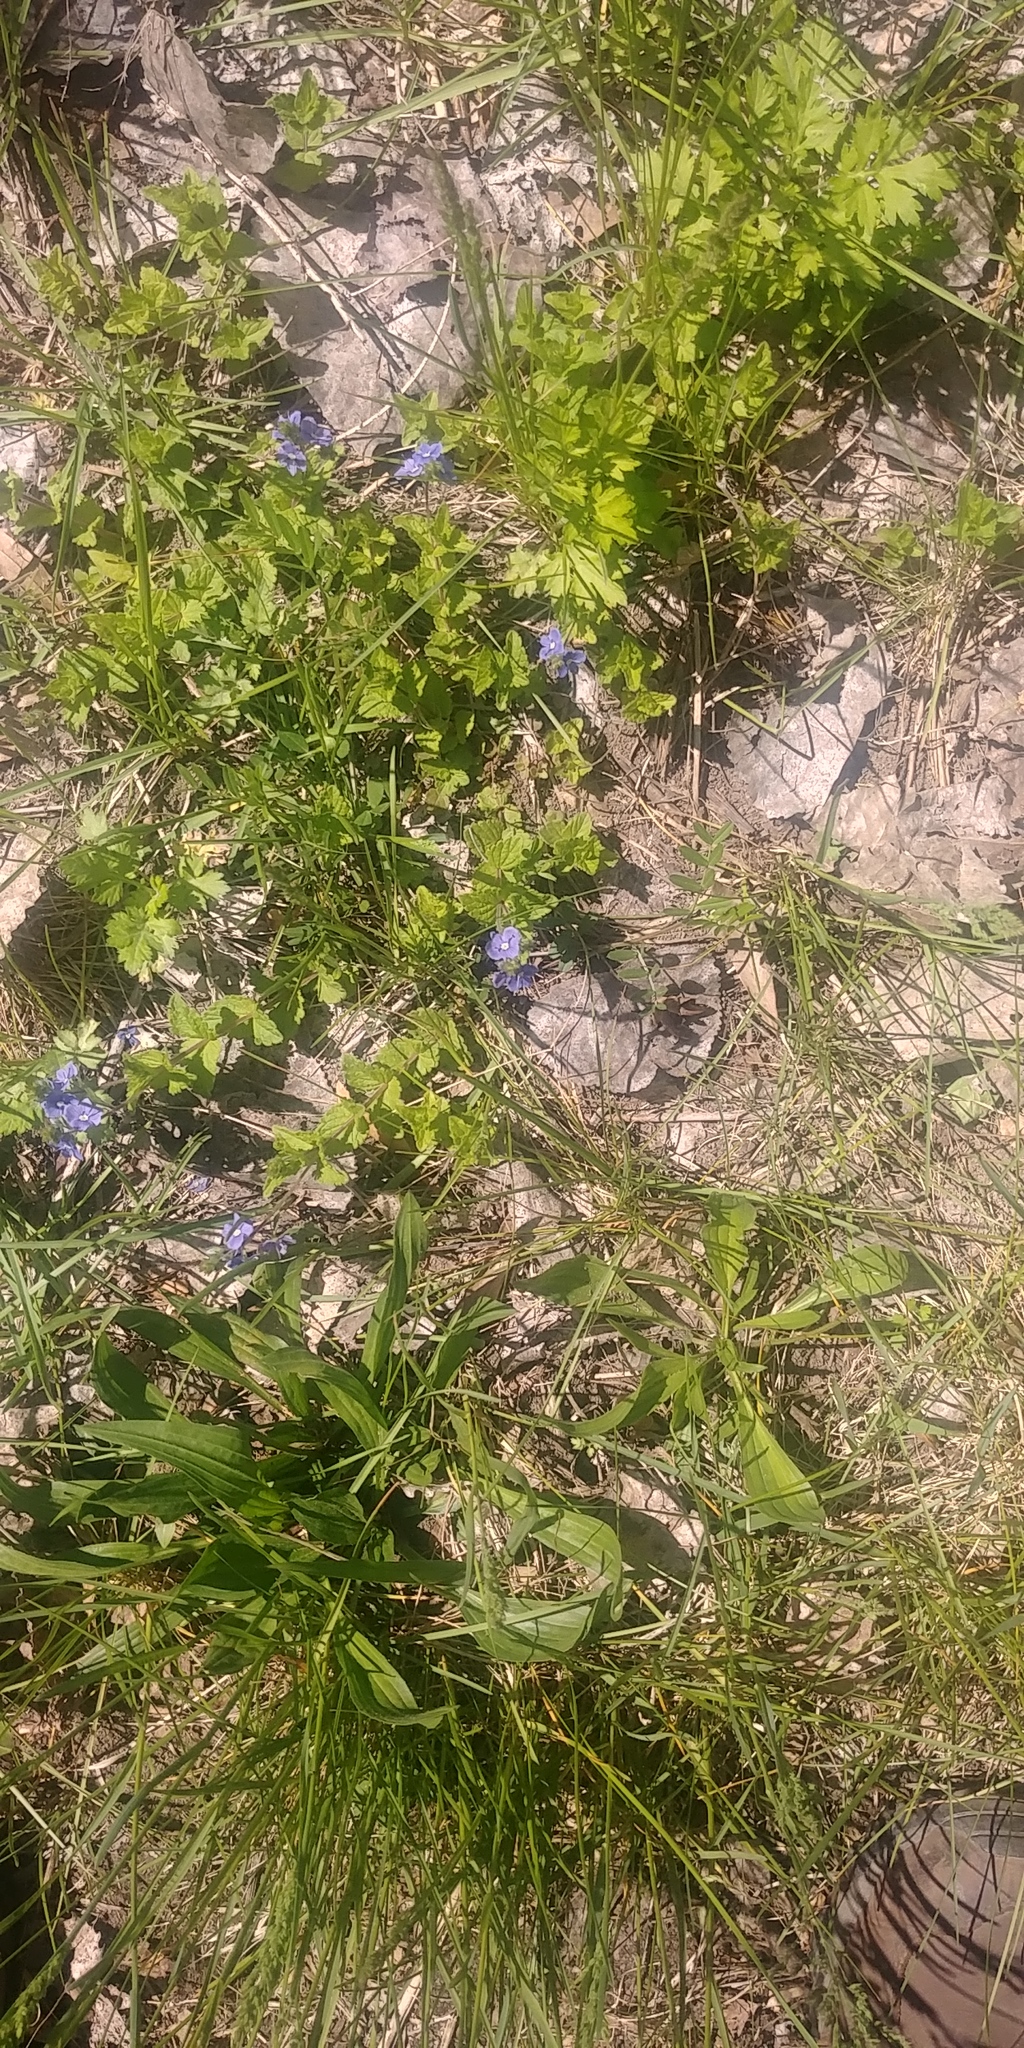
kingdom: Plantae
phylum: Tracheophyta
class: Magnoliopsida
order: Lamiales
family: Plantaginaceae
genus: Veronica
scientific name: Veronica chamaedrys
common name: Germander speedwell
